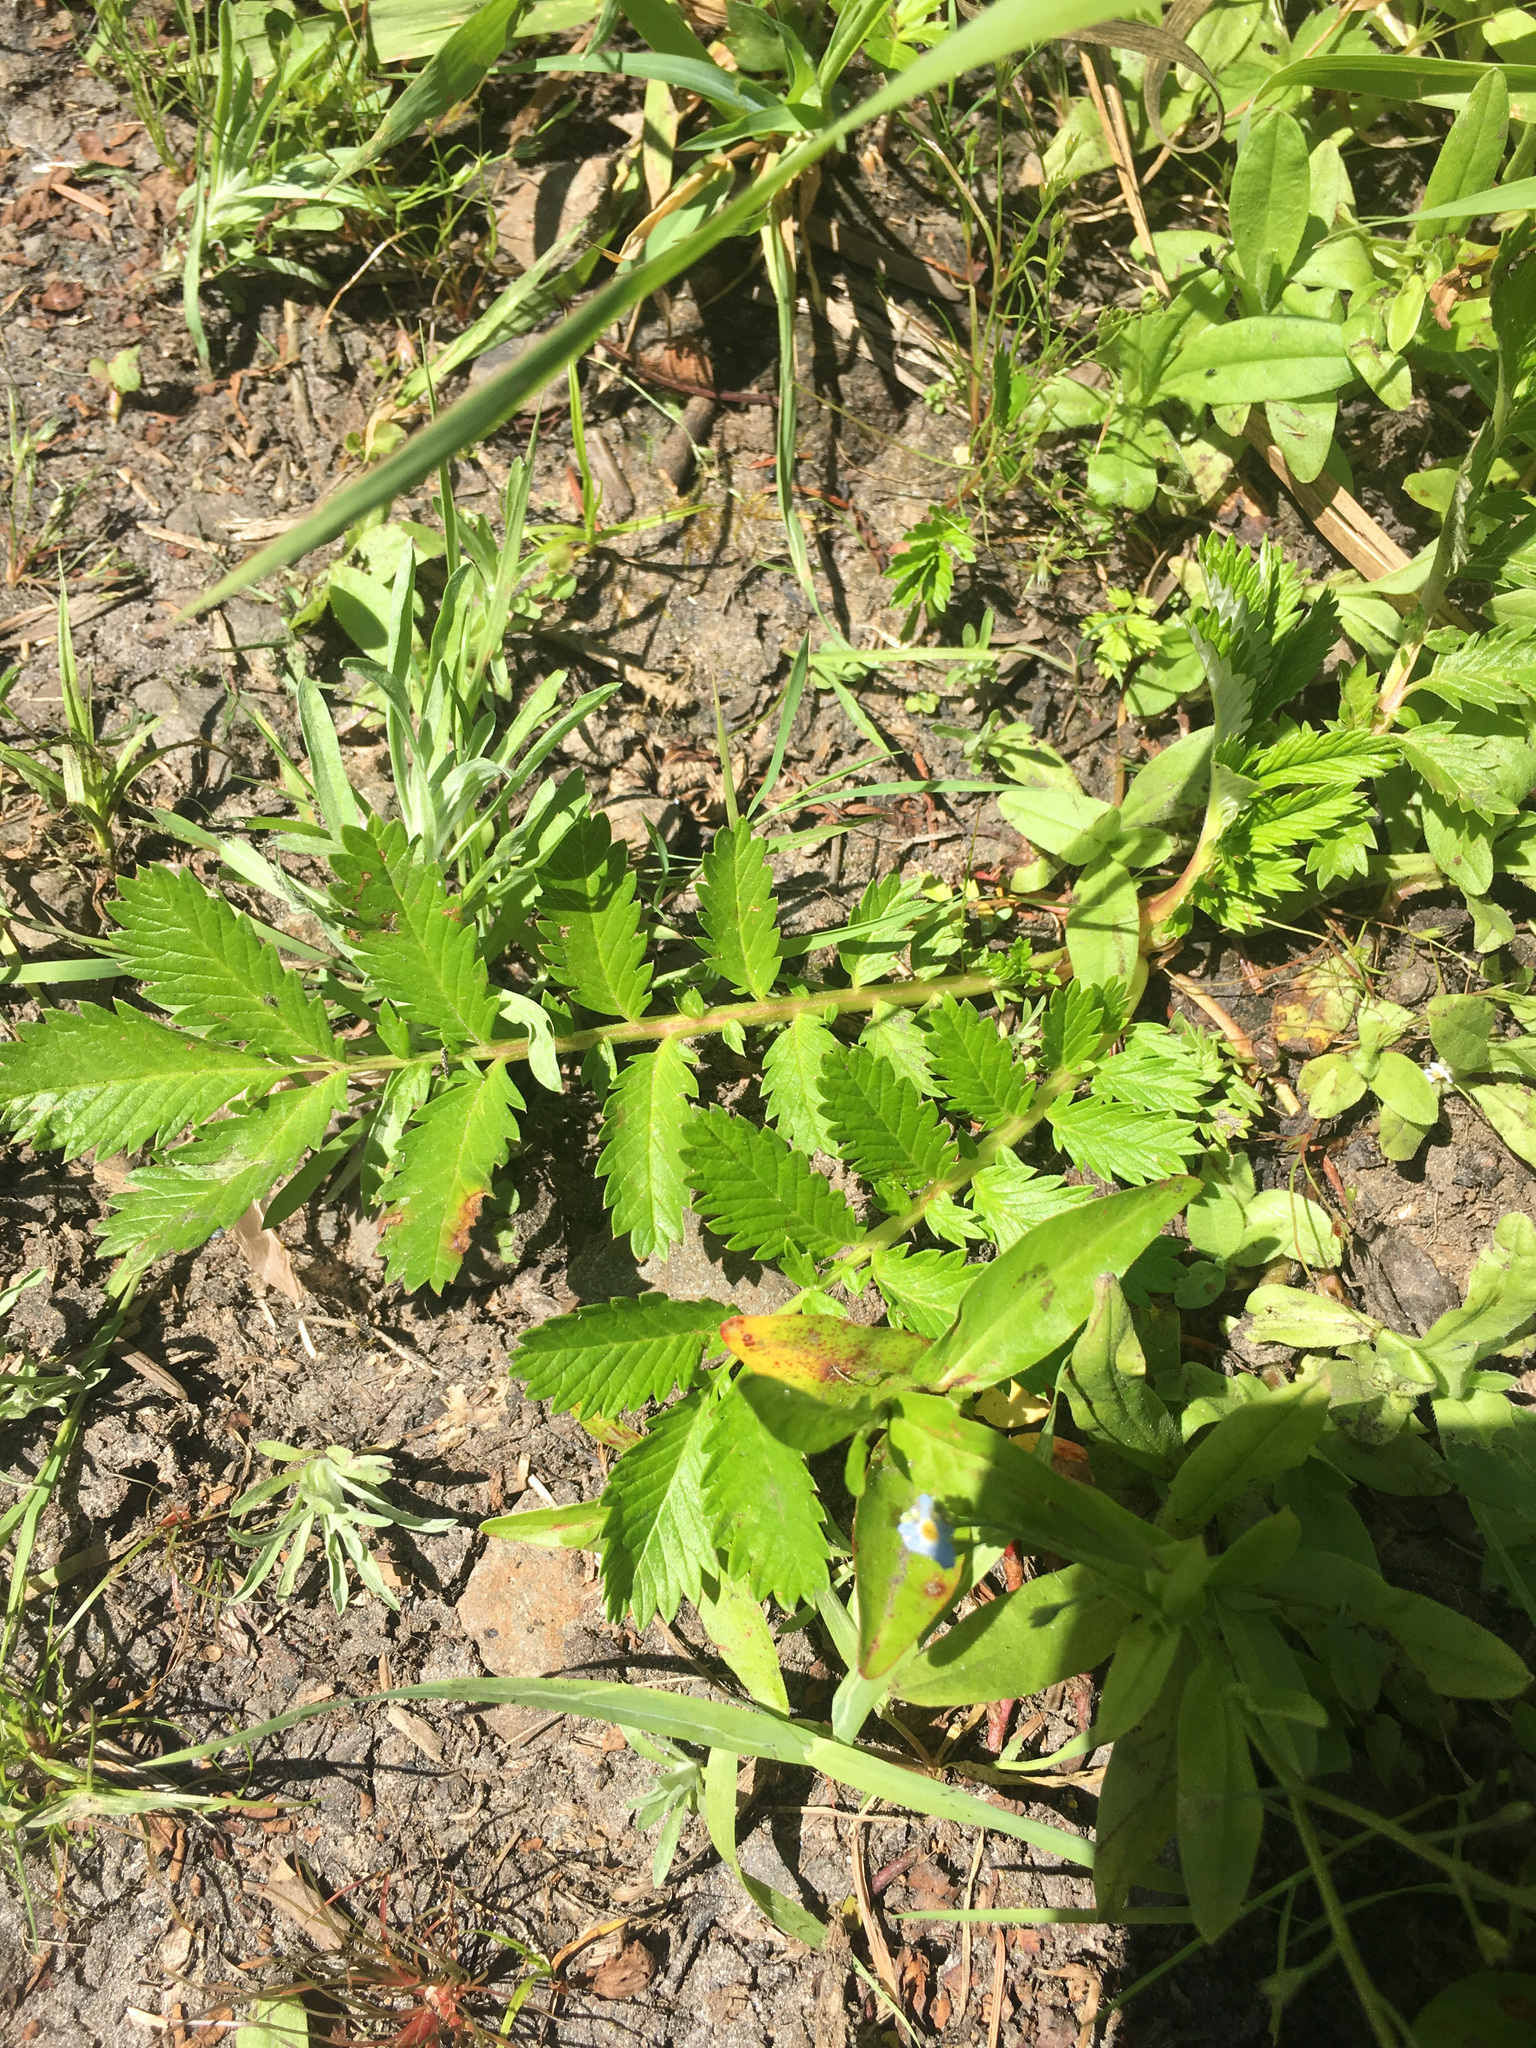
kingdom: Plantae
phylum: Tracheophyta
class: Magnoliopsida
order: Rosales
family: Rosaceae
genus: Argentina
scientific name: Argentina anserina
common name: Common silverweed
